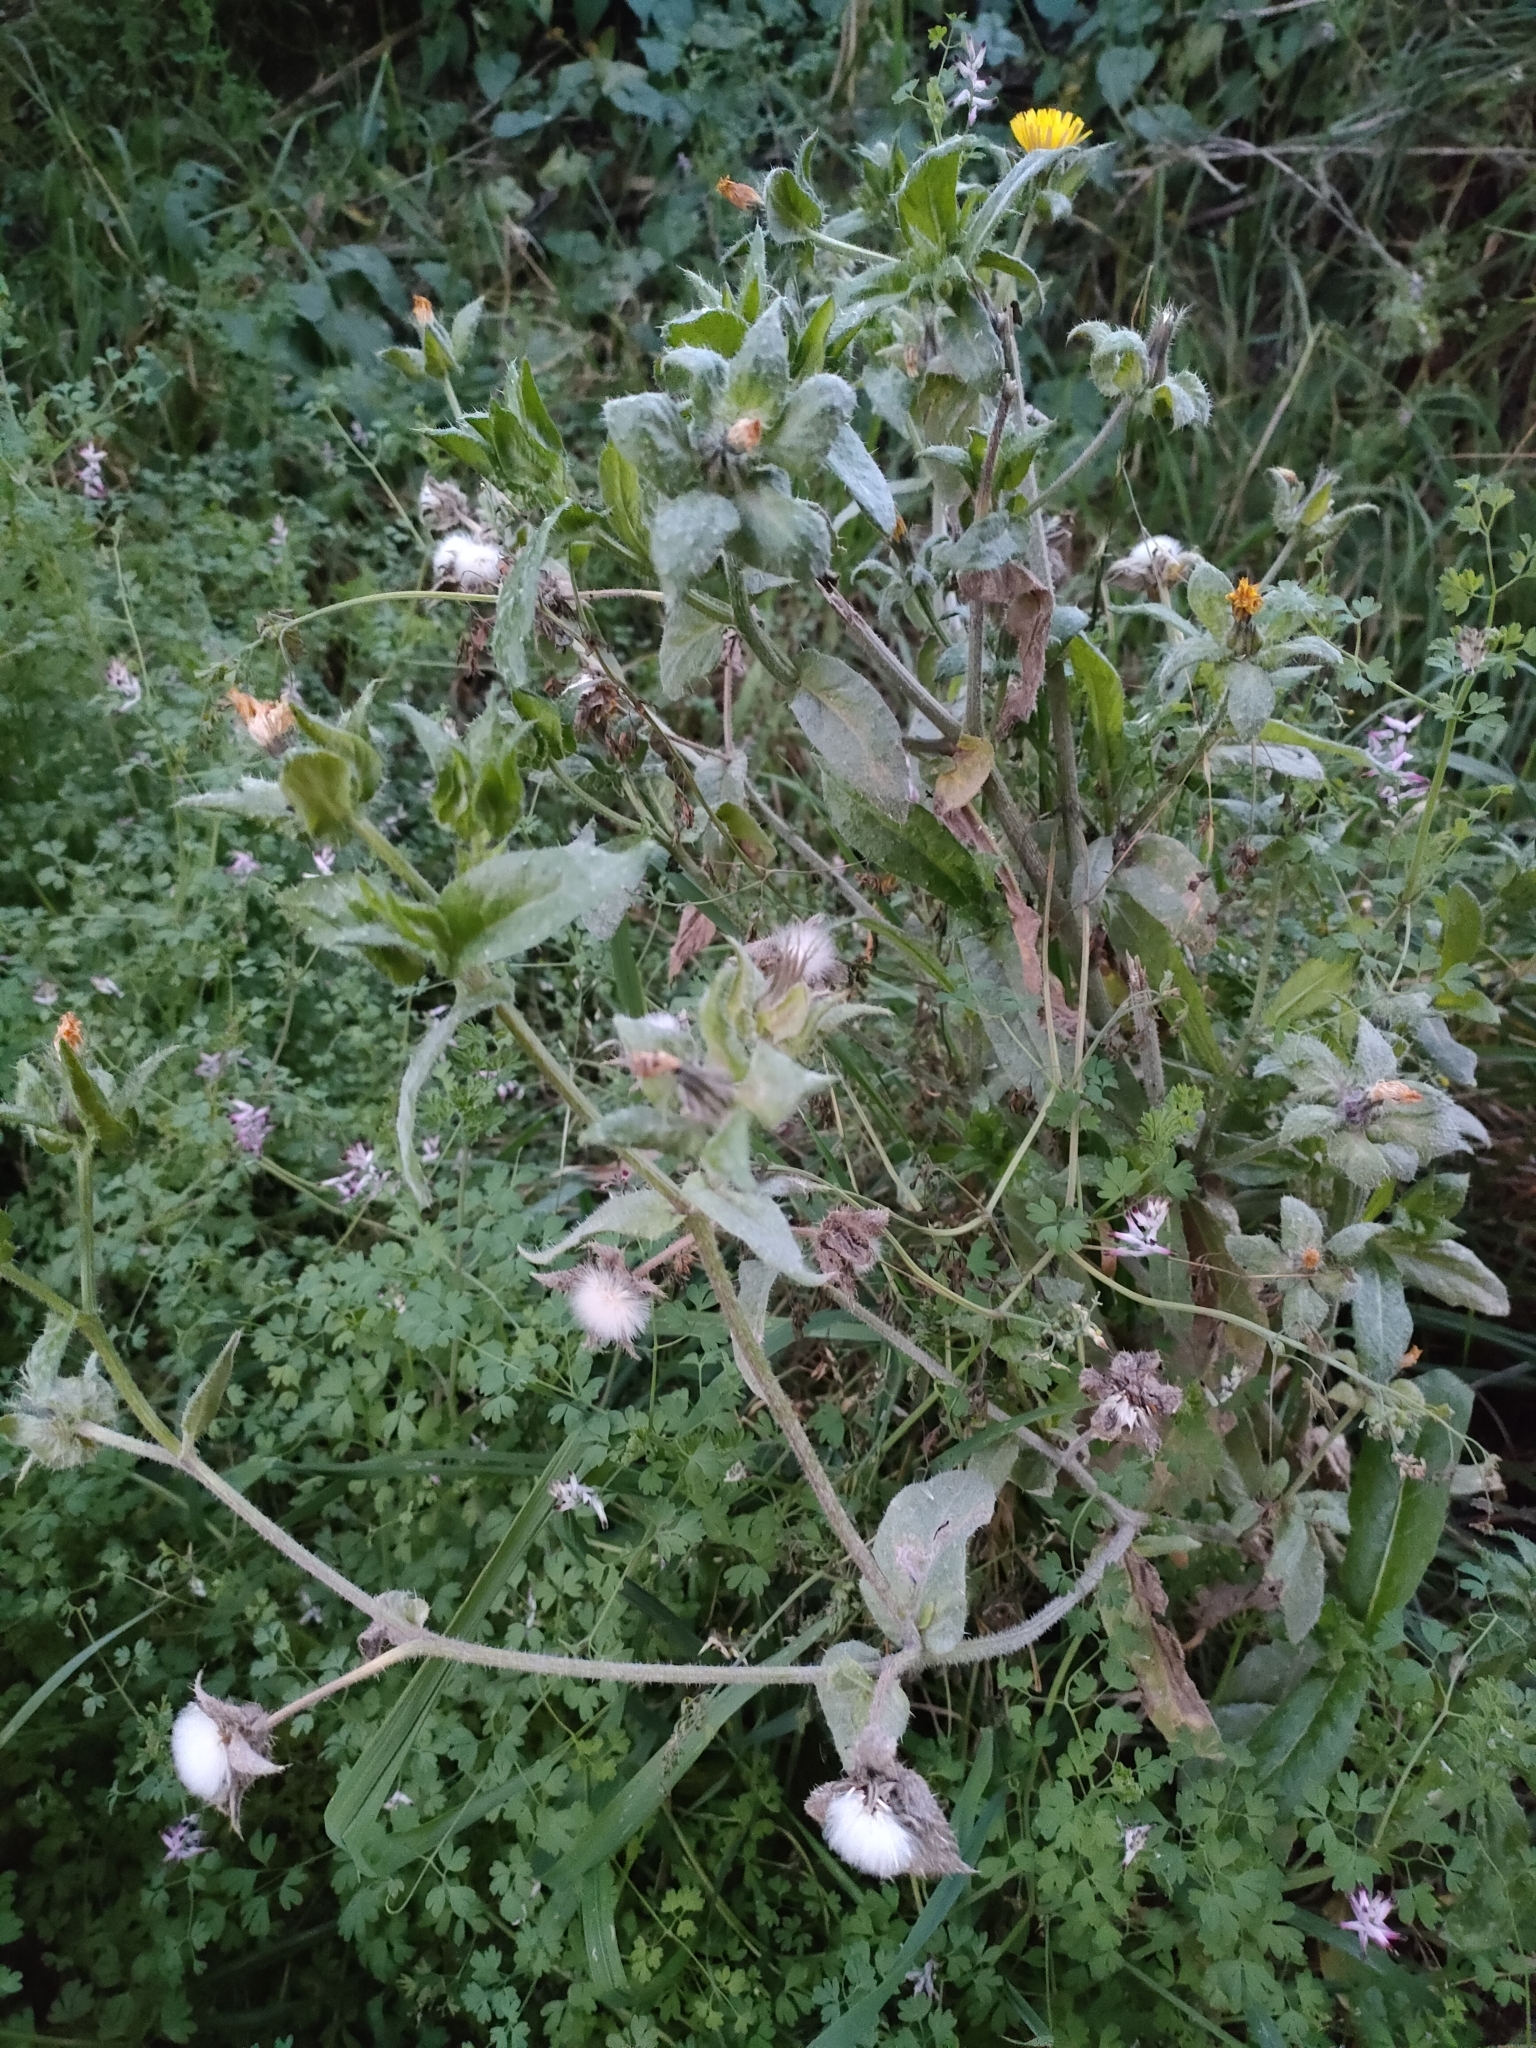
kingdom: Plantae
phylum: Tracheophyta
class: Magnoliopsida
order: Asterales
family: Asteraceae
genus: Helminthotheca
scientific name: Helminthotheca echioides
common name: Ox-tongue
